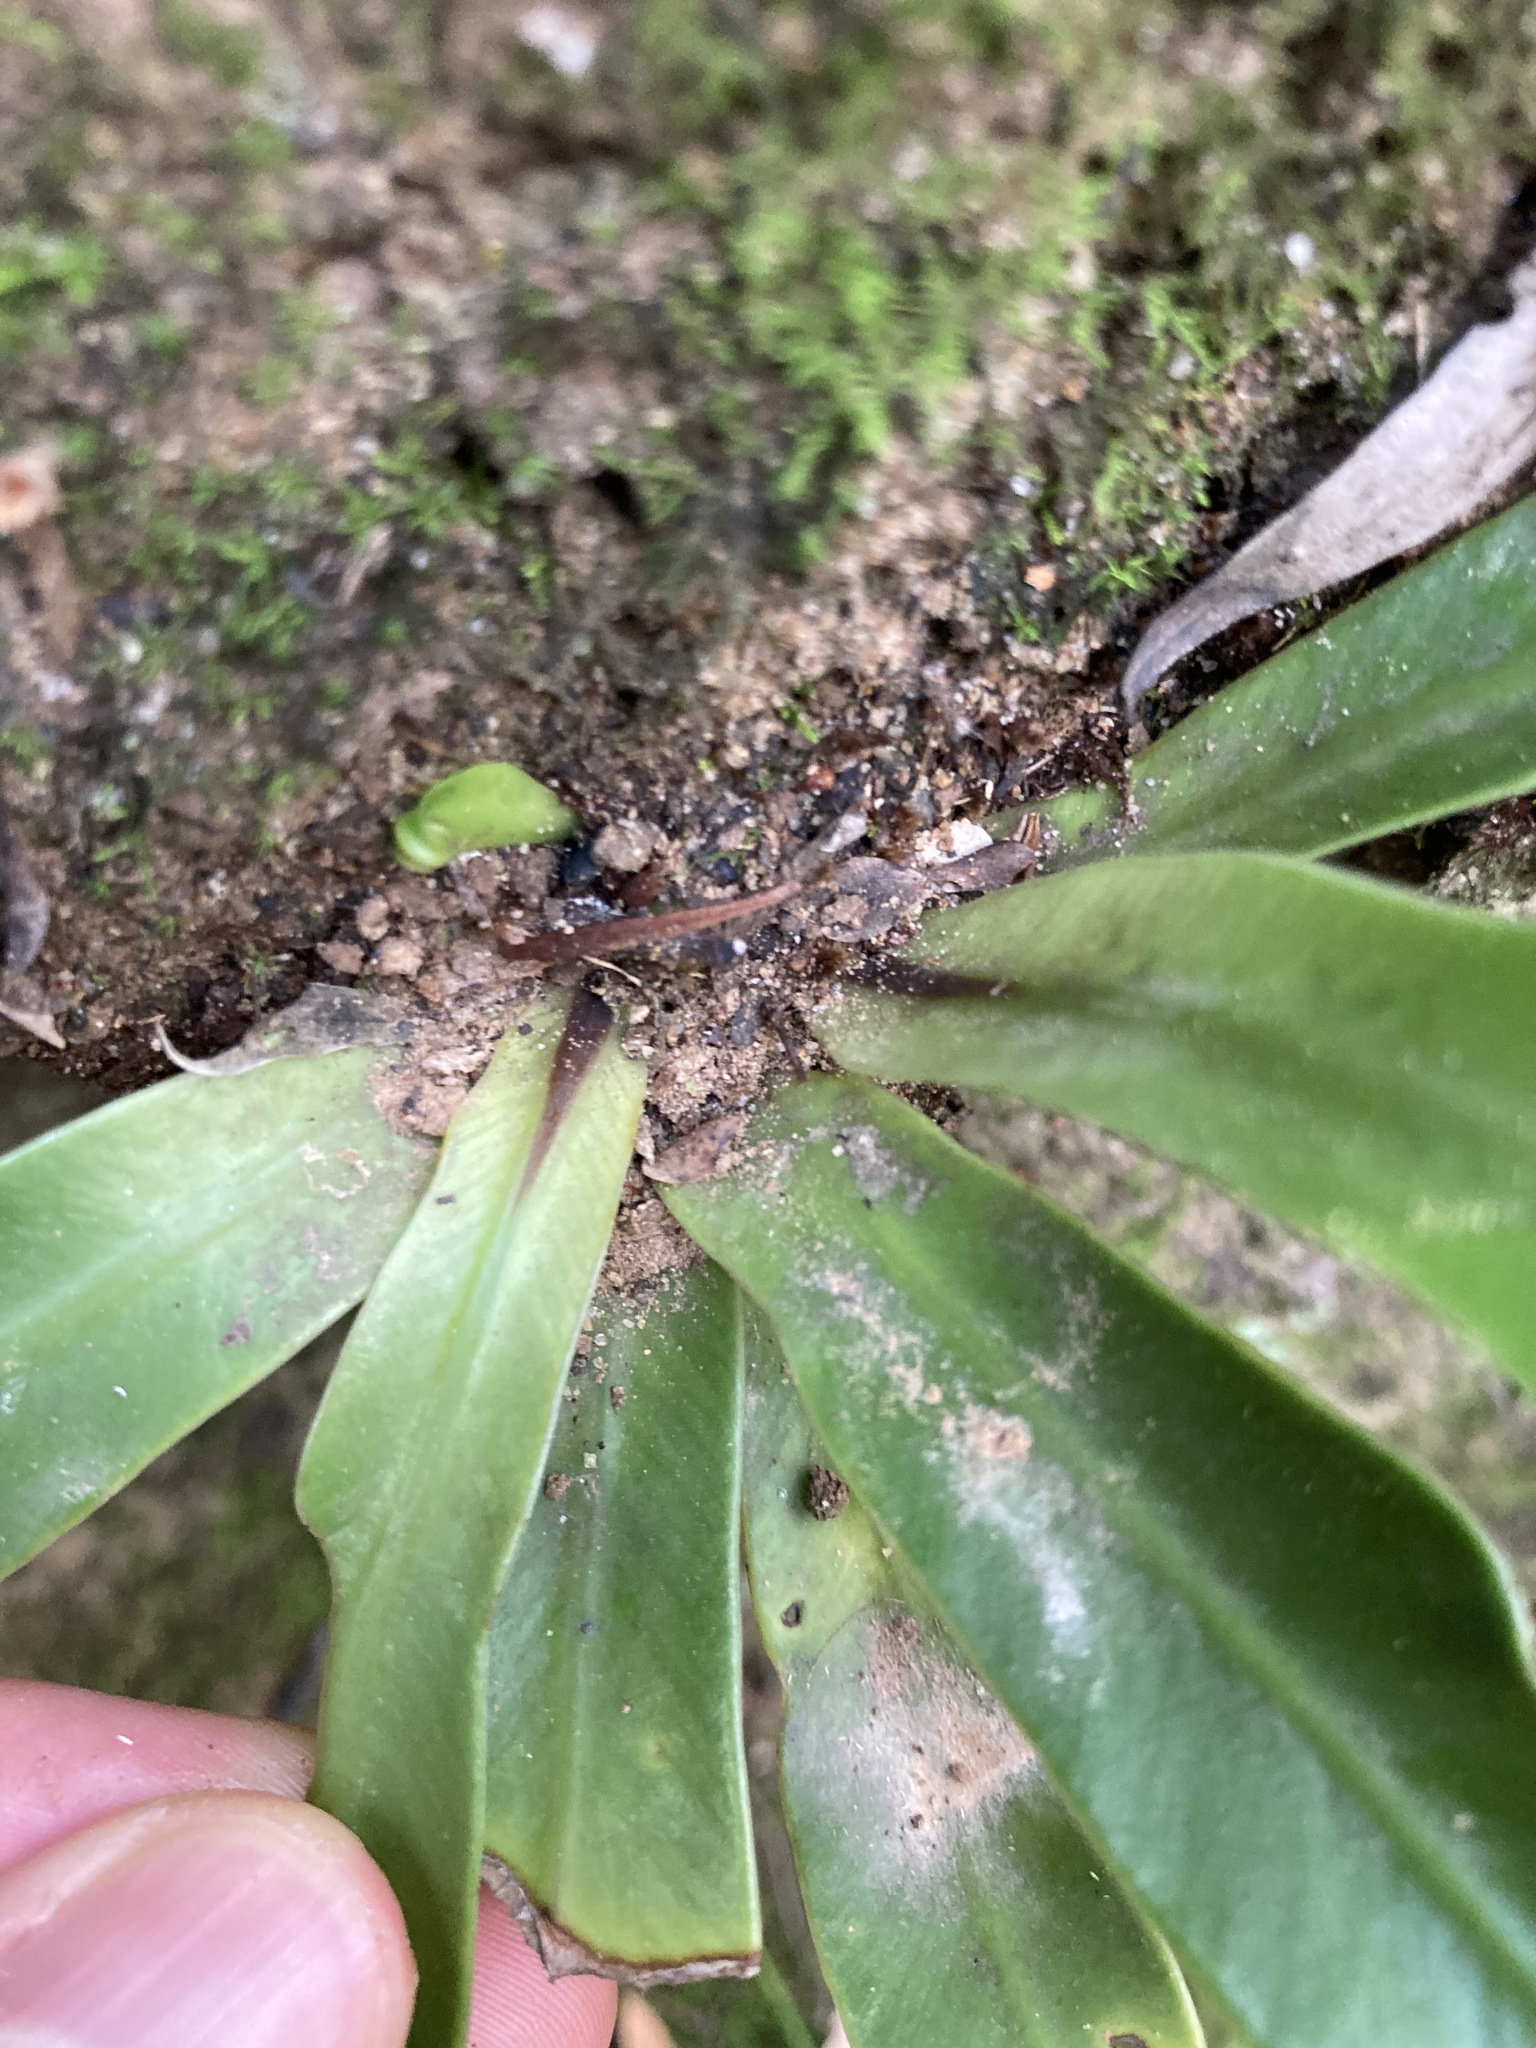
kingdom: Plantae
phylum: Tracheophyta
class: Polypodiopsida
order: Polypodiales
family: Aspleniaceae
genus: Asplenium
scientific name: Asplenium australasicum
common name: Bird's-nest fern
